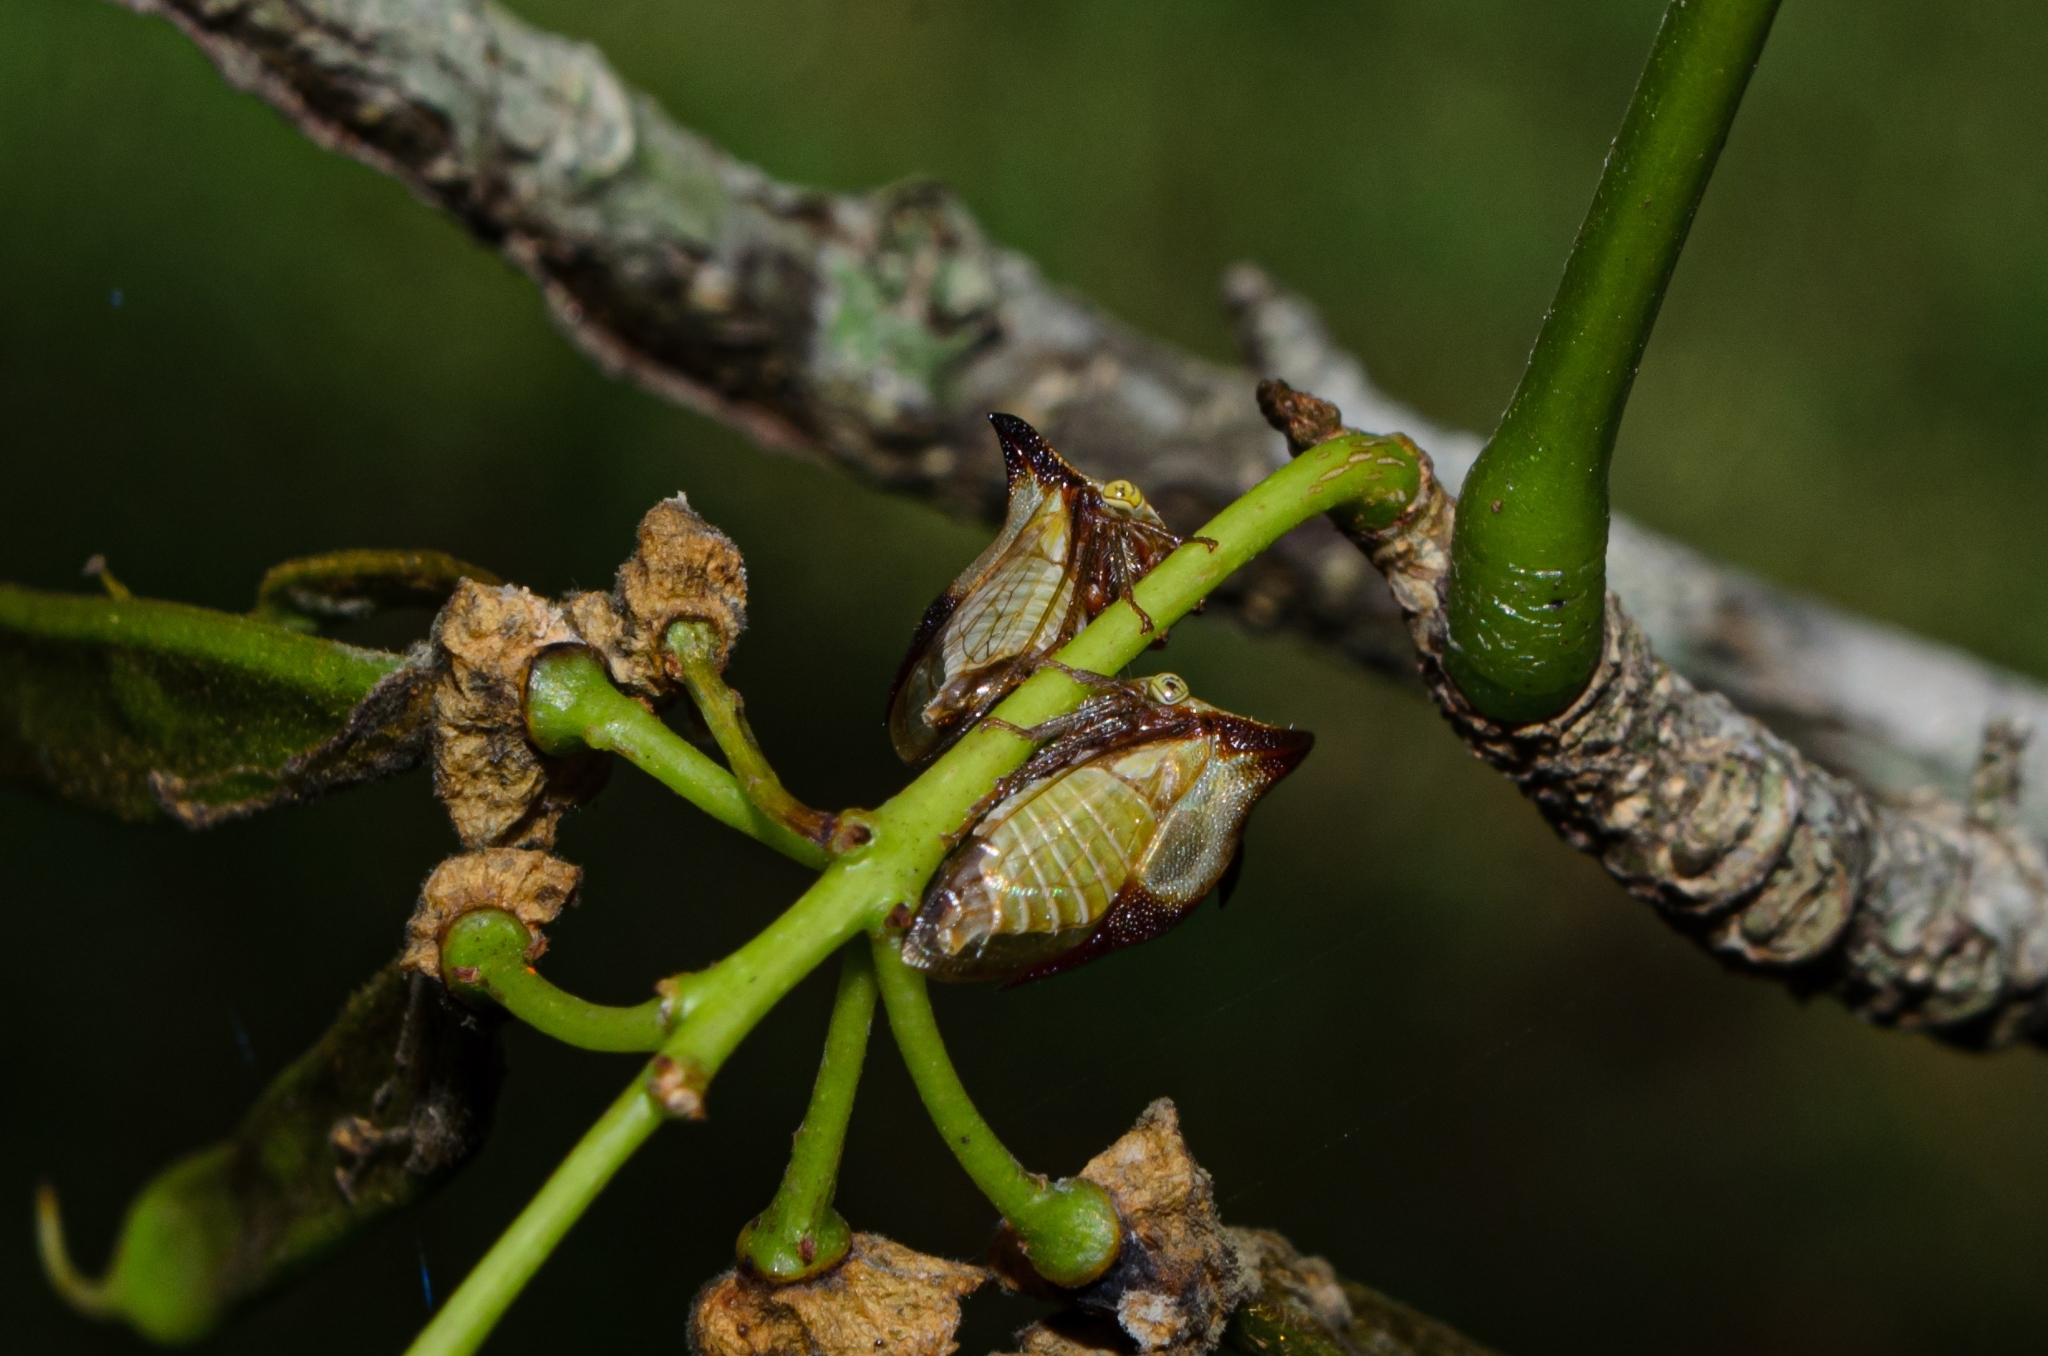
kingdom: Animalia
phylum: Arthropoda
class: Insecta
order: Hemiptera
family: Membracidae
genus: Ceresa
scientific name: Ceresa ustulata
